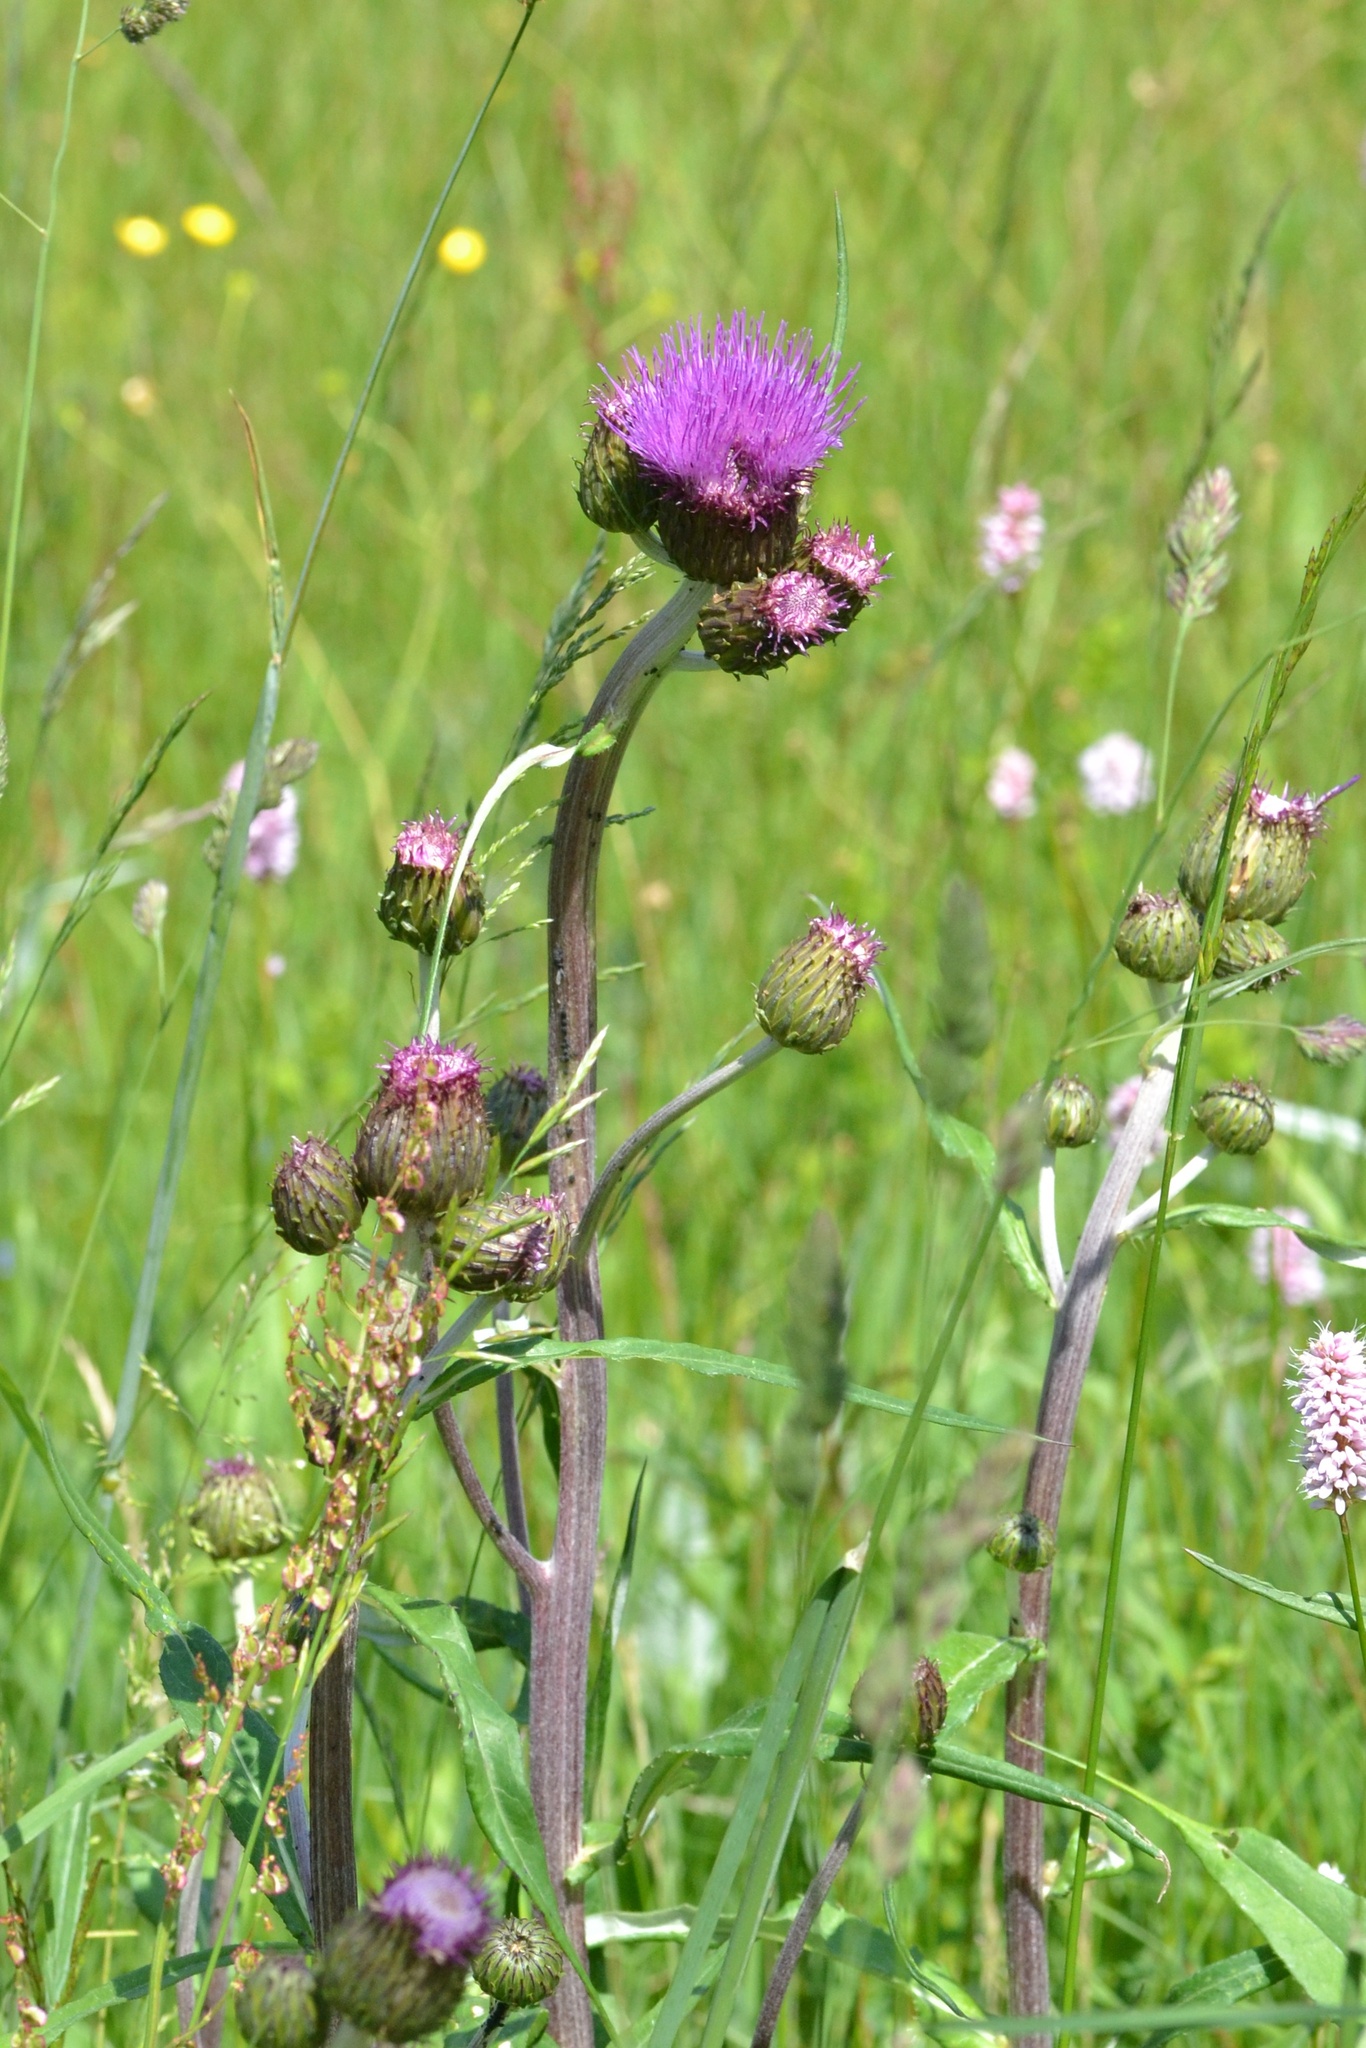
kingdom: Plantae
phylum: Tracheophyta
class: Magnoliopsida
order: Asterales
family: Asteraceae
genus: Cirsium
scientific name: Cirsium heterophyllum
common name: Melancholy thistle
